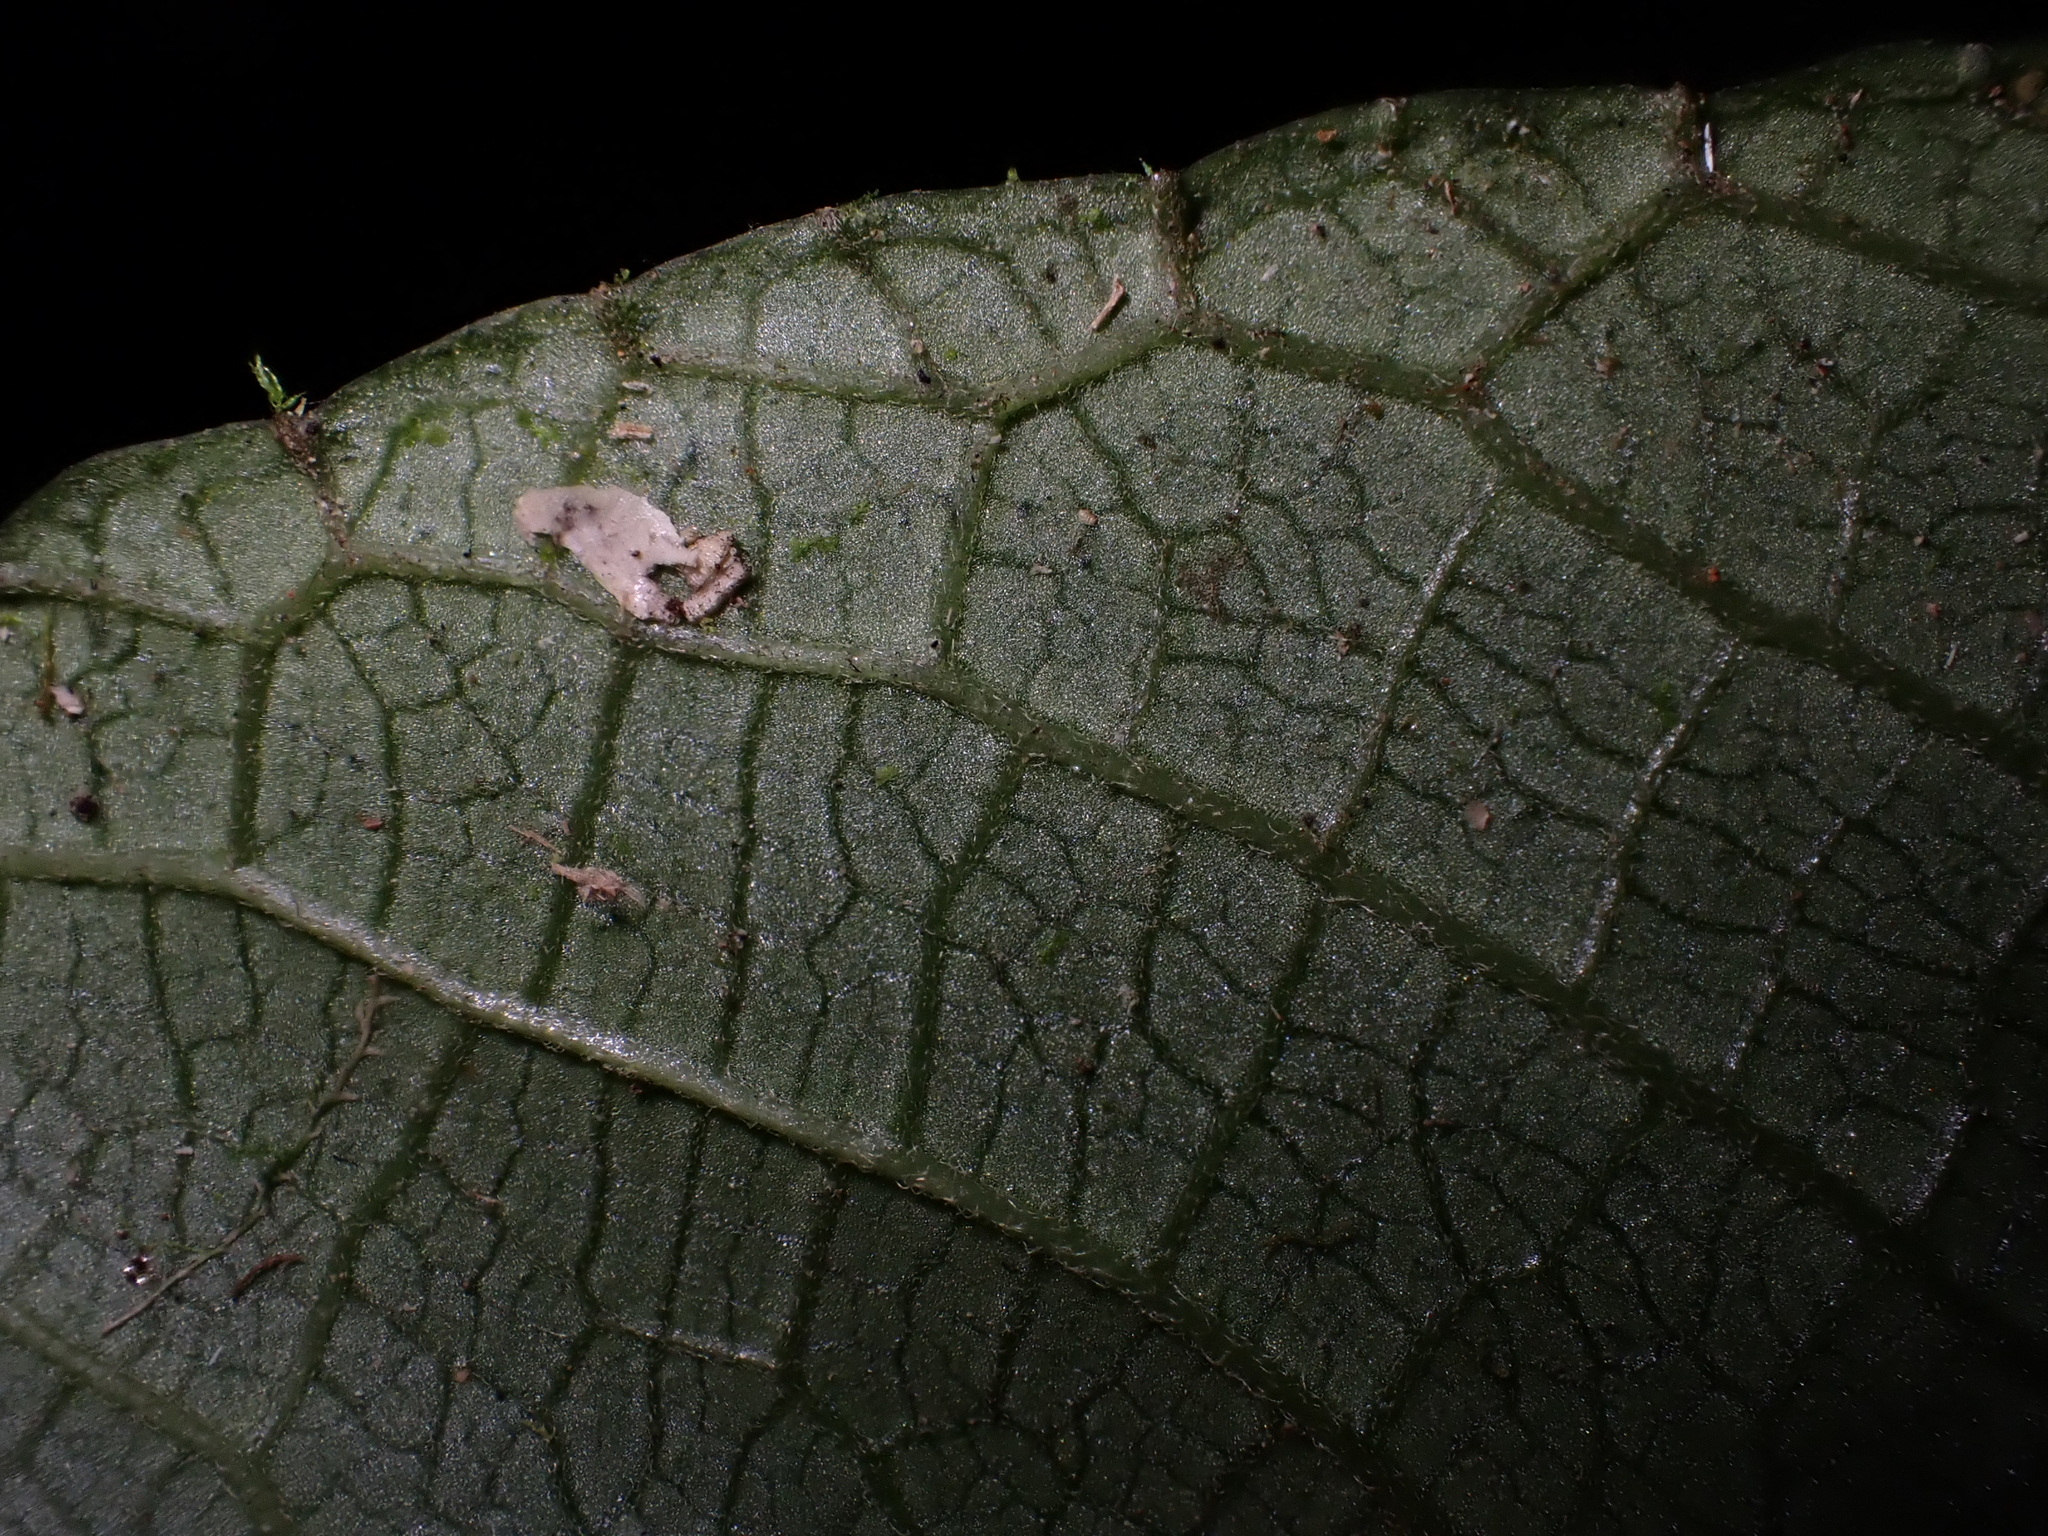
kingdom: Plantae
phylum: Tracheophyta
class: Magnoliopsida
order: Asterales
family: Campanulaceae
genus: Burmeistera
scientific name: Burmeistera lutosa
